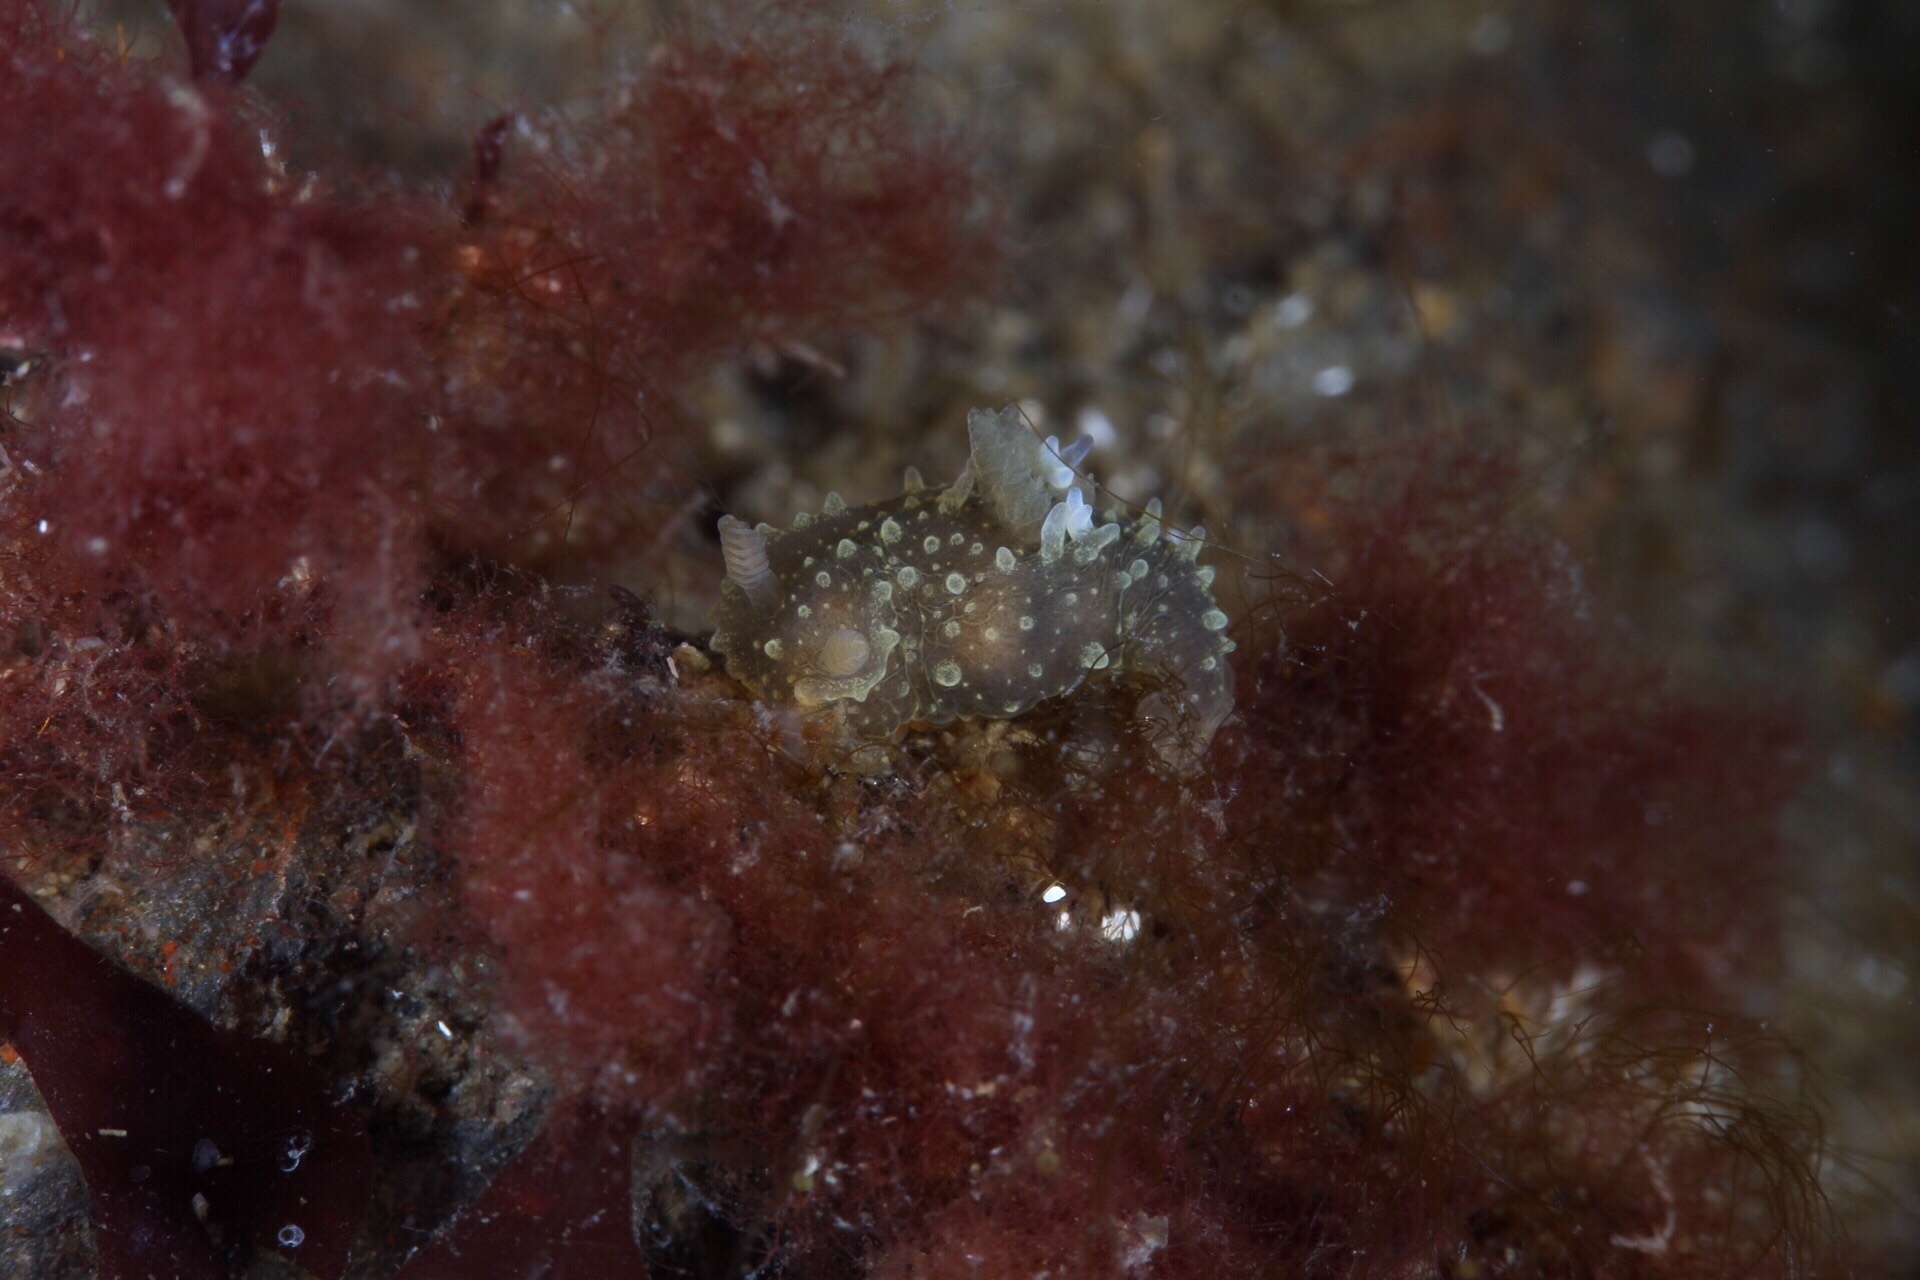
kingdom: Animalia
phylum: Mollusca
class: Gastropoda
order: Nudibranchia
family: Polyceridae
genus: Palio
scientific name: Palio dubia
